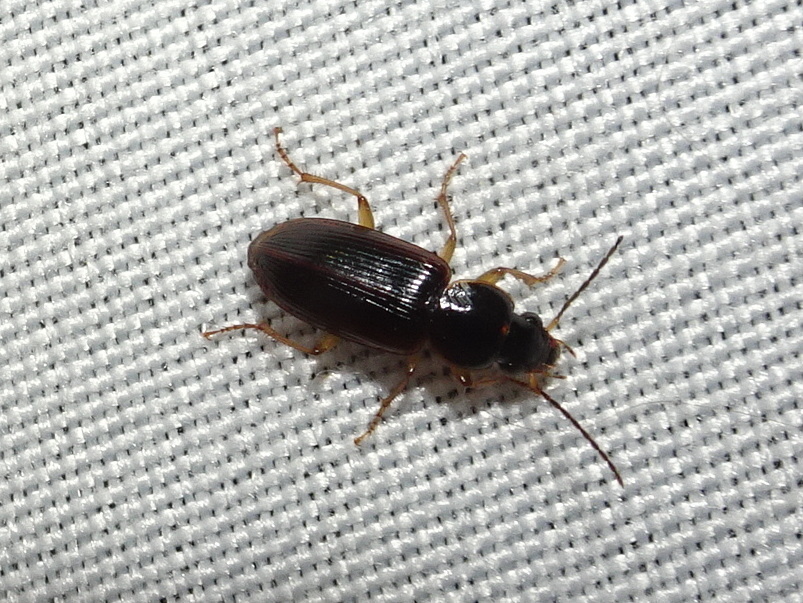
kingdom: Animalia
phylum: Arthropoda
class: Insecta
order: Coleoptera
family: Carabidae
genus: Stenolophus
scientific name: Stenolophus ochropezus
